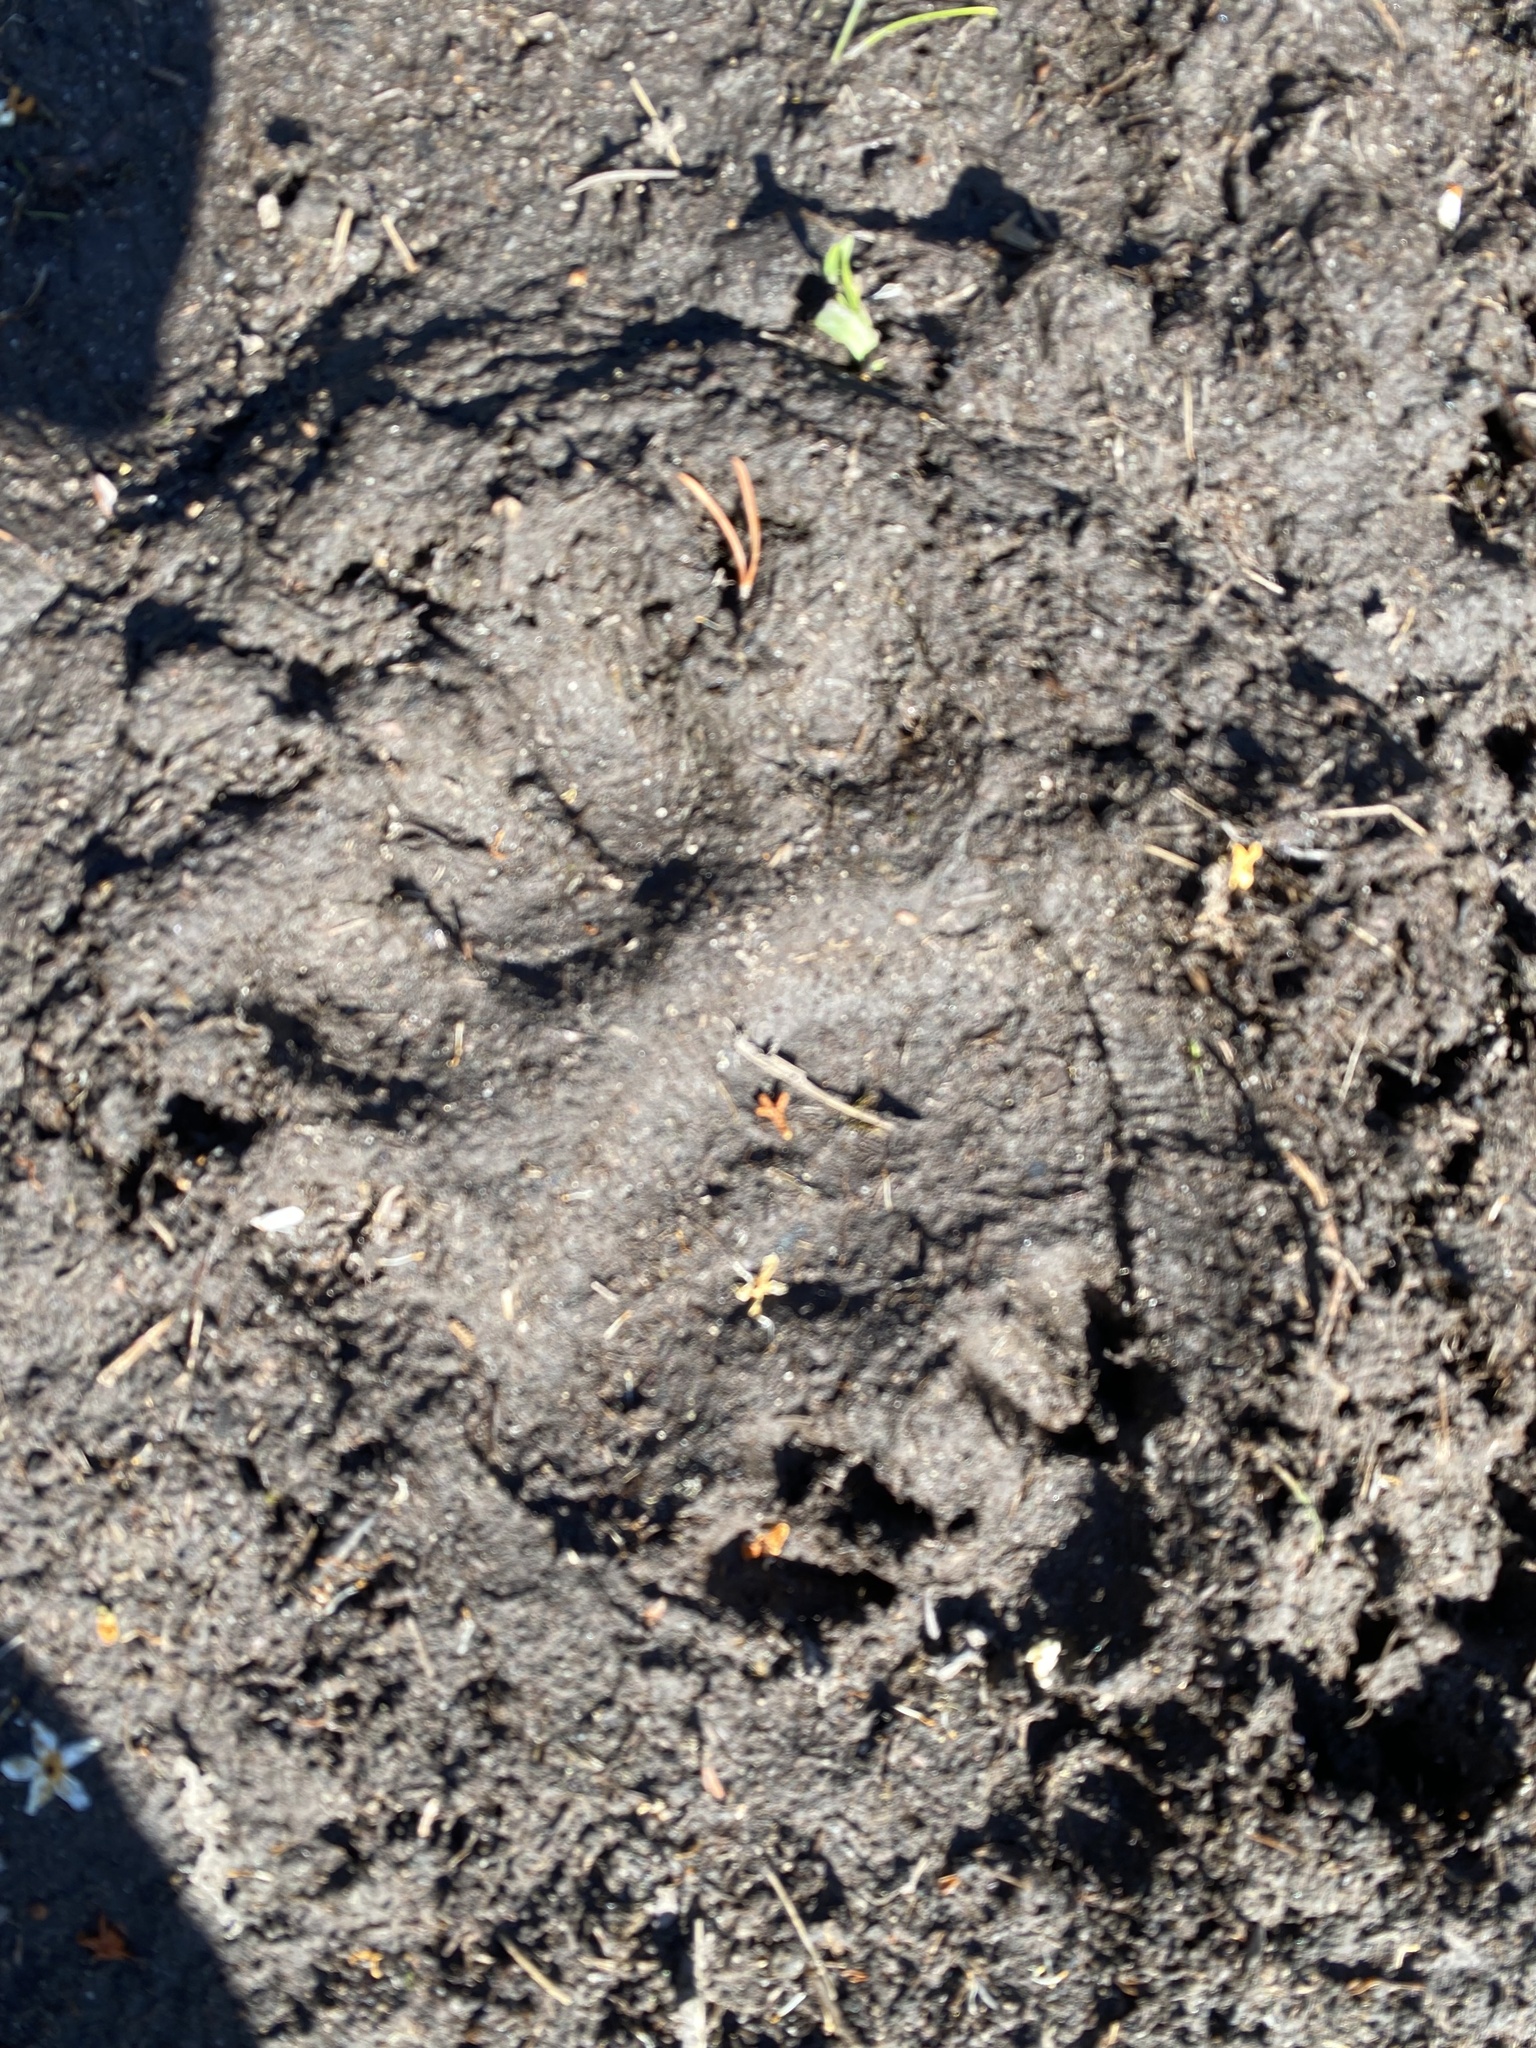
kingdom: Animalia
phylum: Chordata
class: Mammalia
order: Carnivora
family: Ursidae
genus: Ursus
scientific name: Ursus americanus
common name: American black bear
